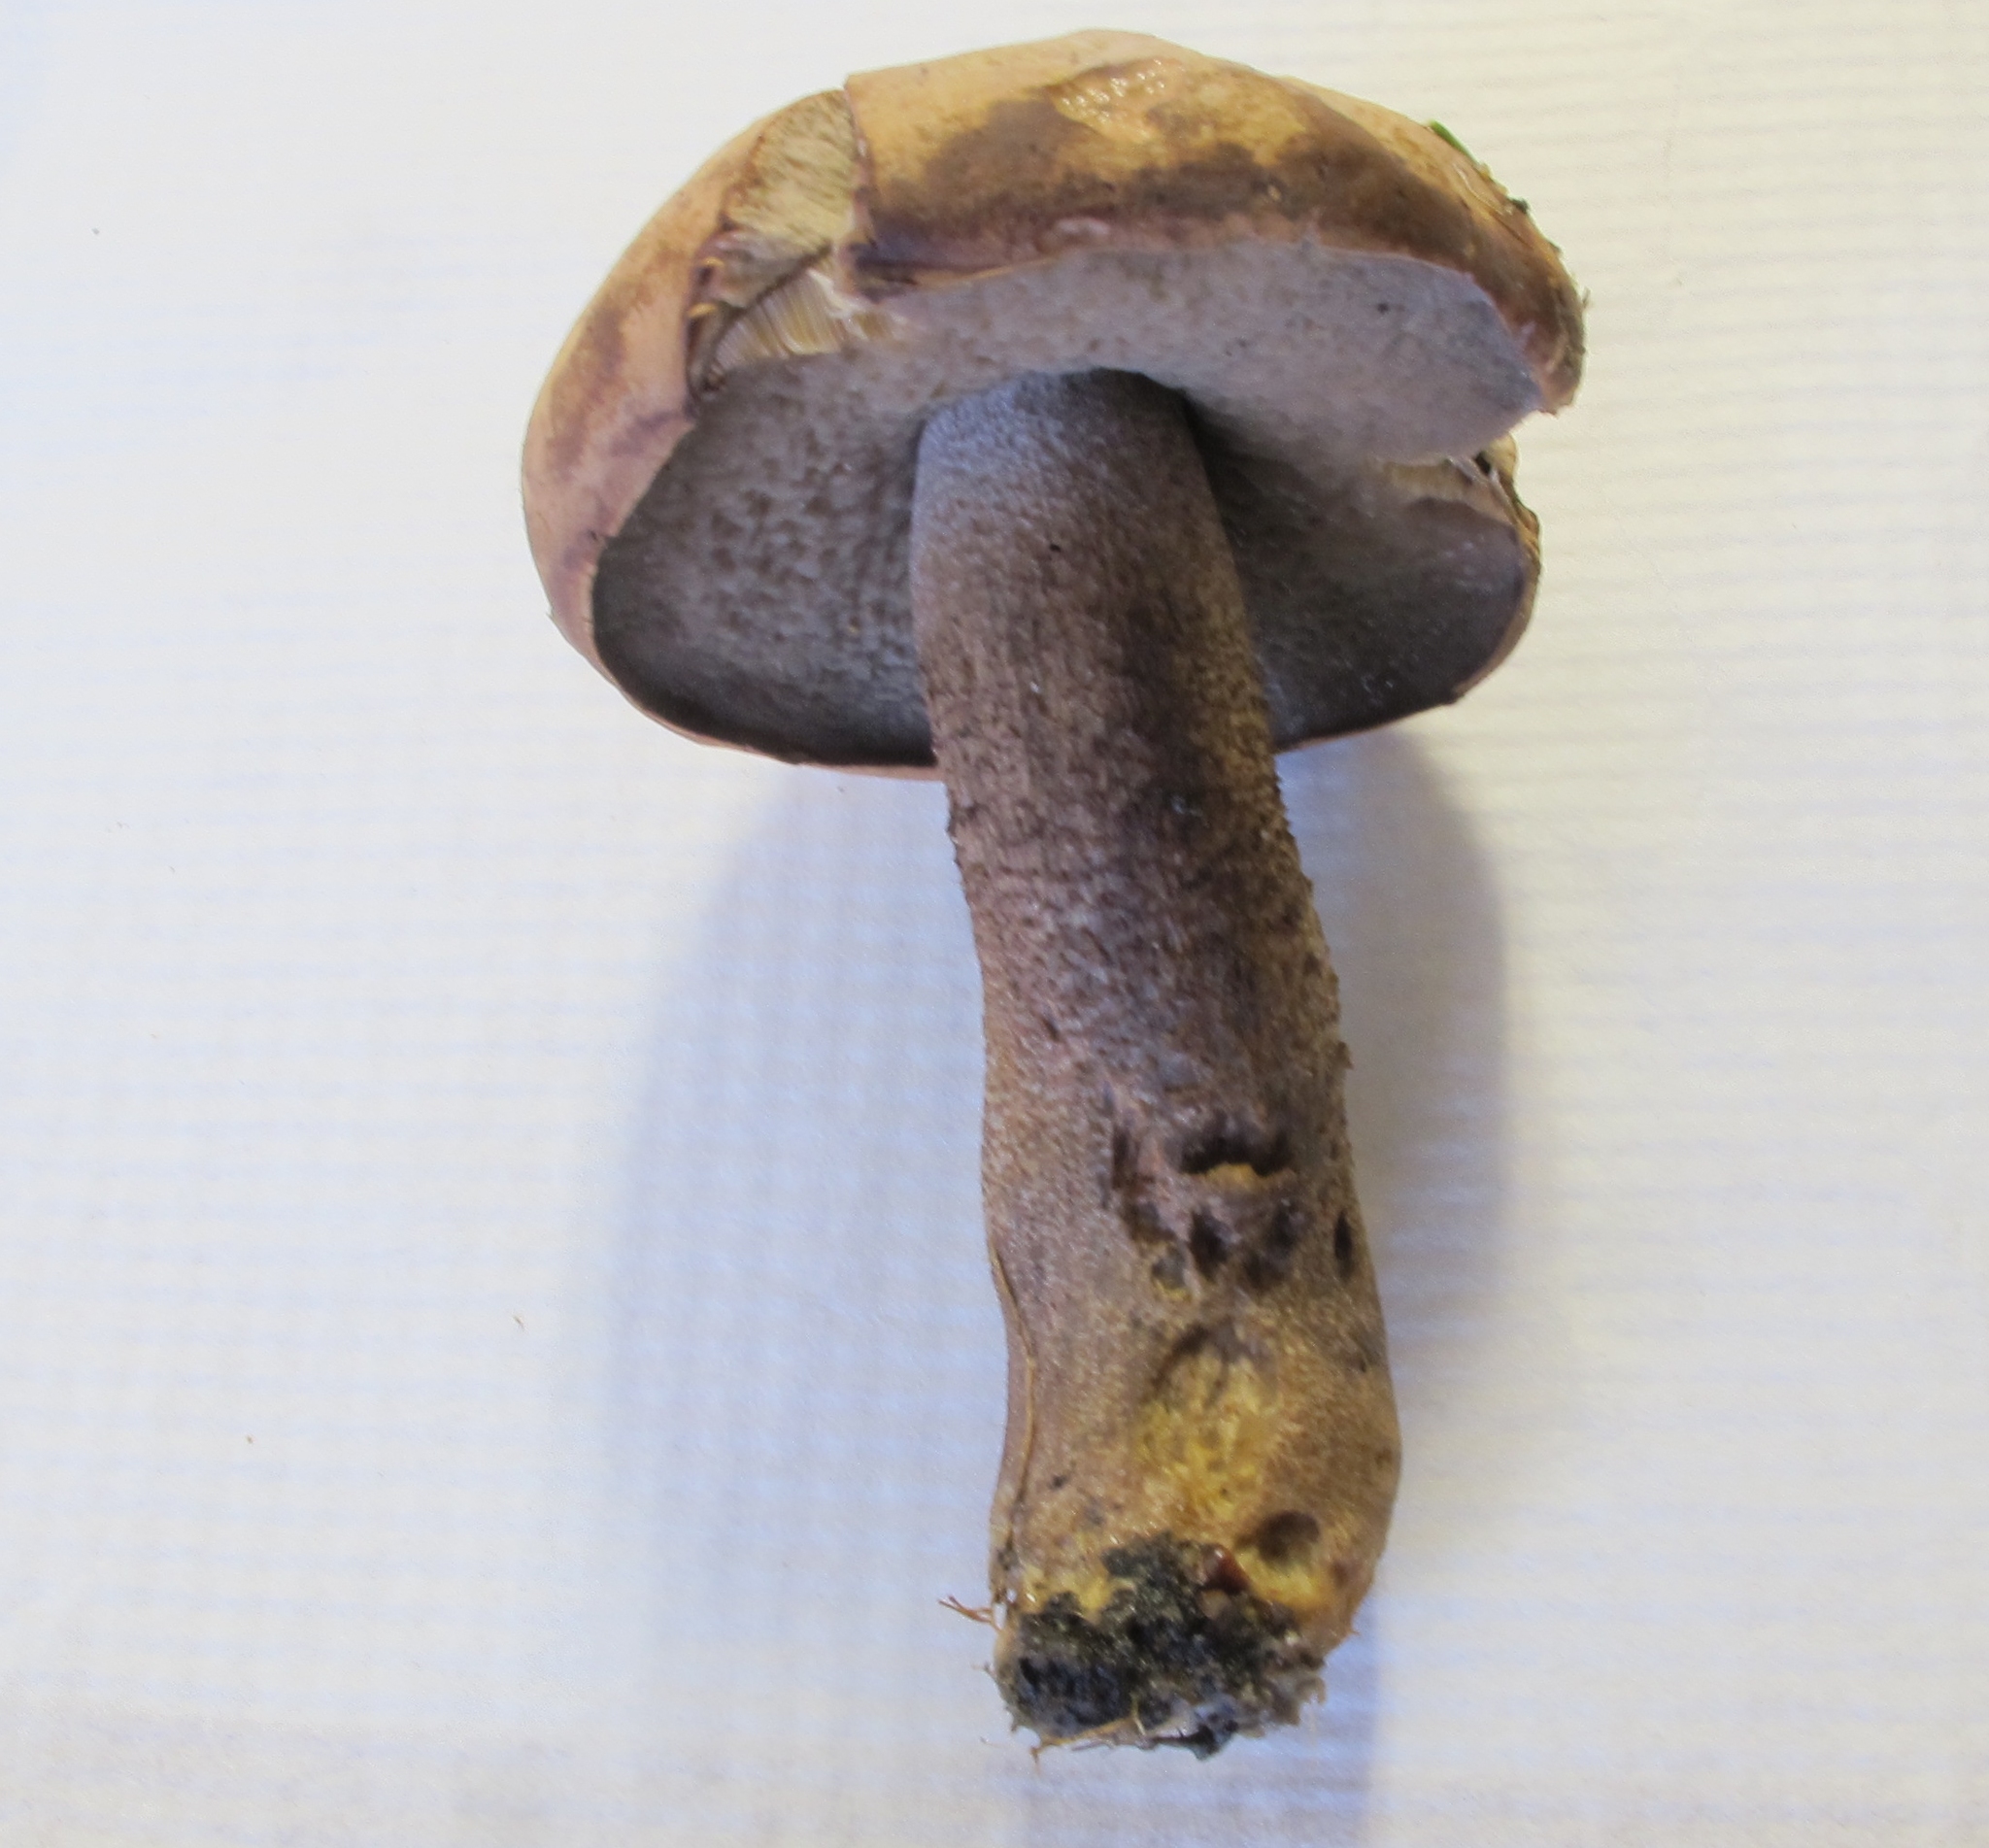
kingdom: Fungi
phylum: Basidiomycota
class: Agaricomycetes
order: Boletales
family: Boletaceae
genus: Sutorius
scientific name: Sutorius eximius
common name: Lilac-brown bolete
